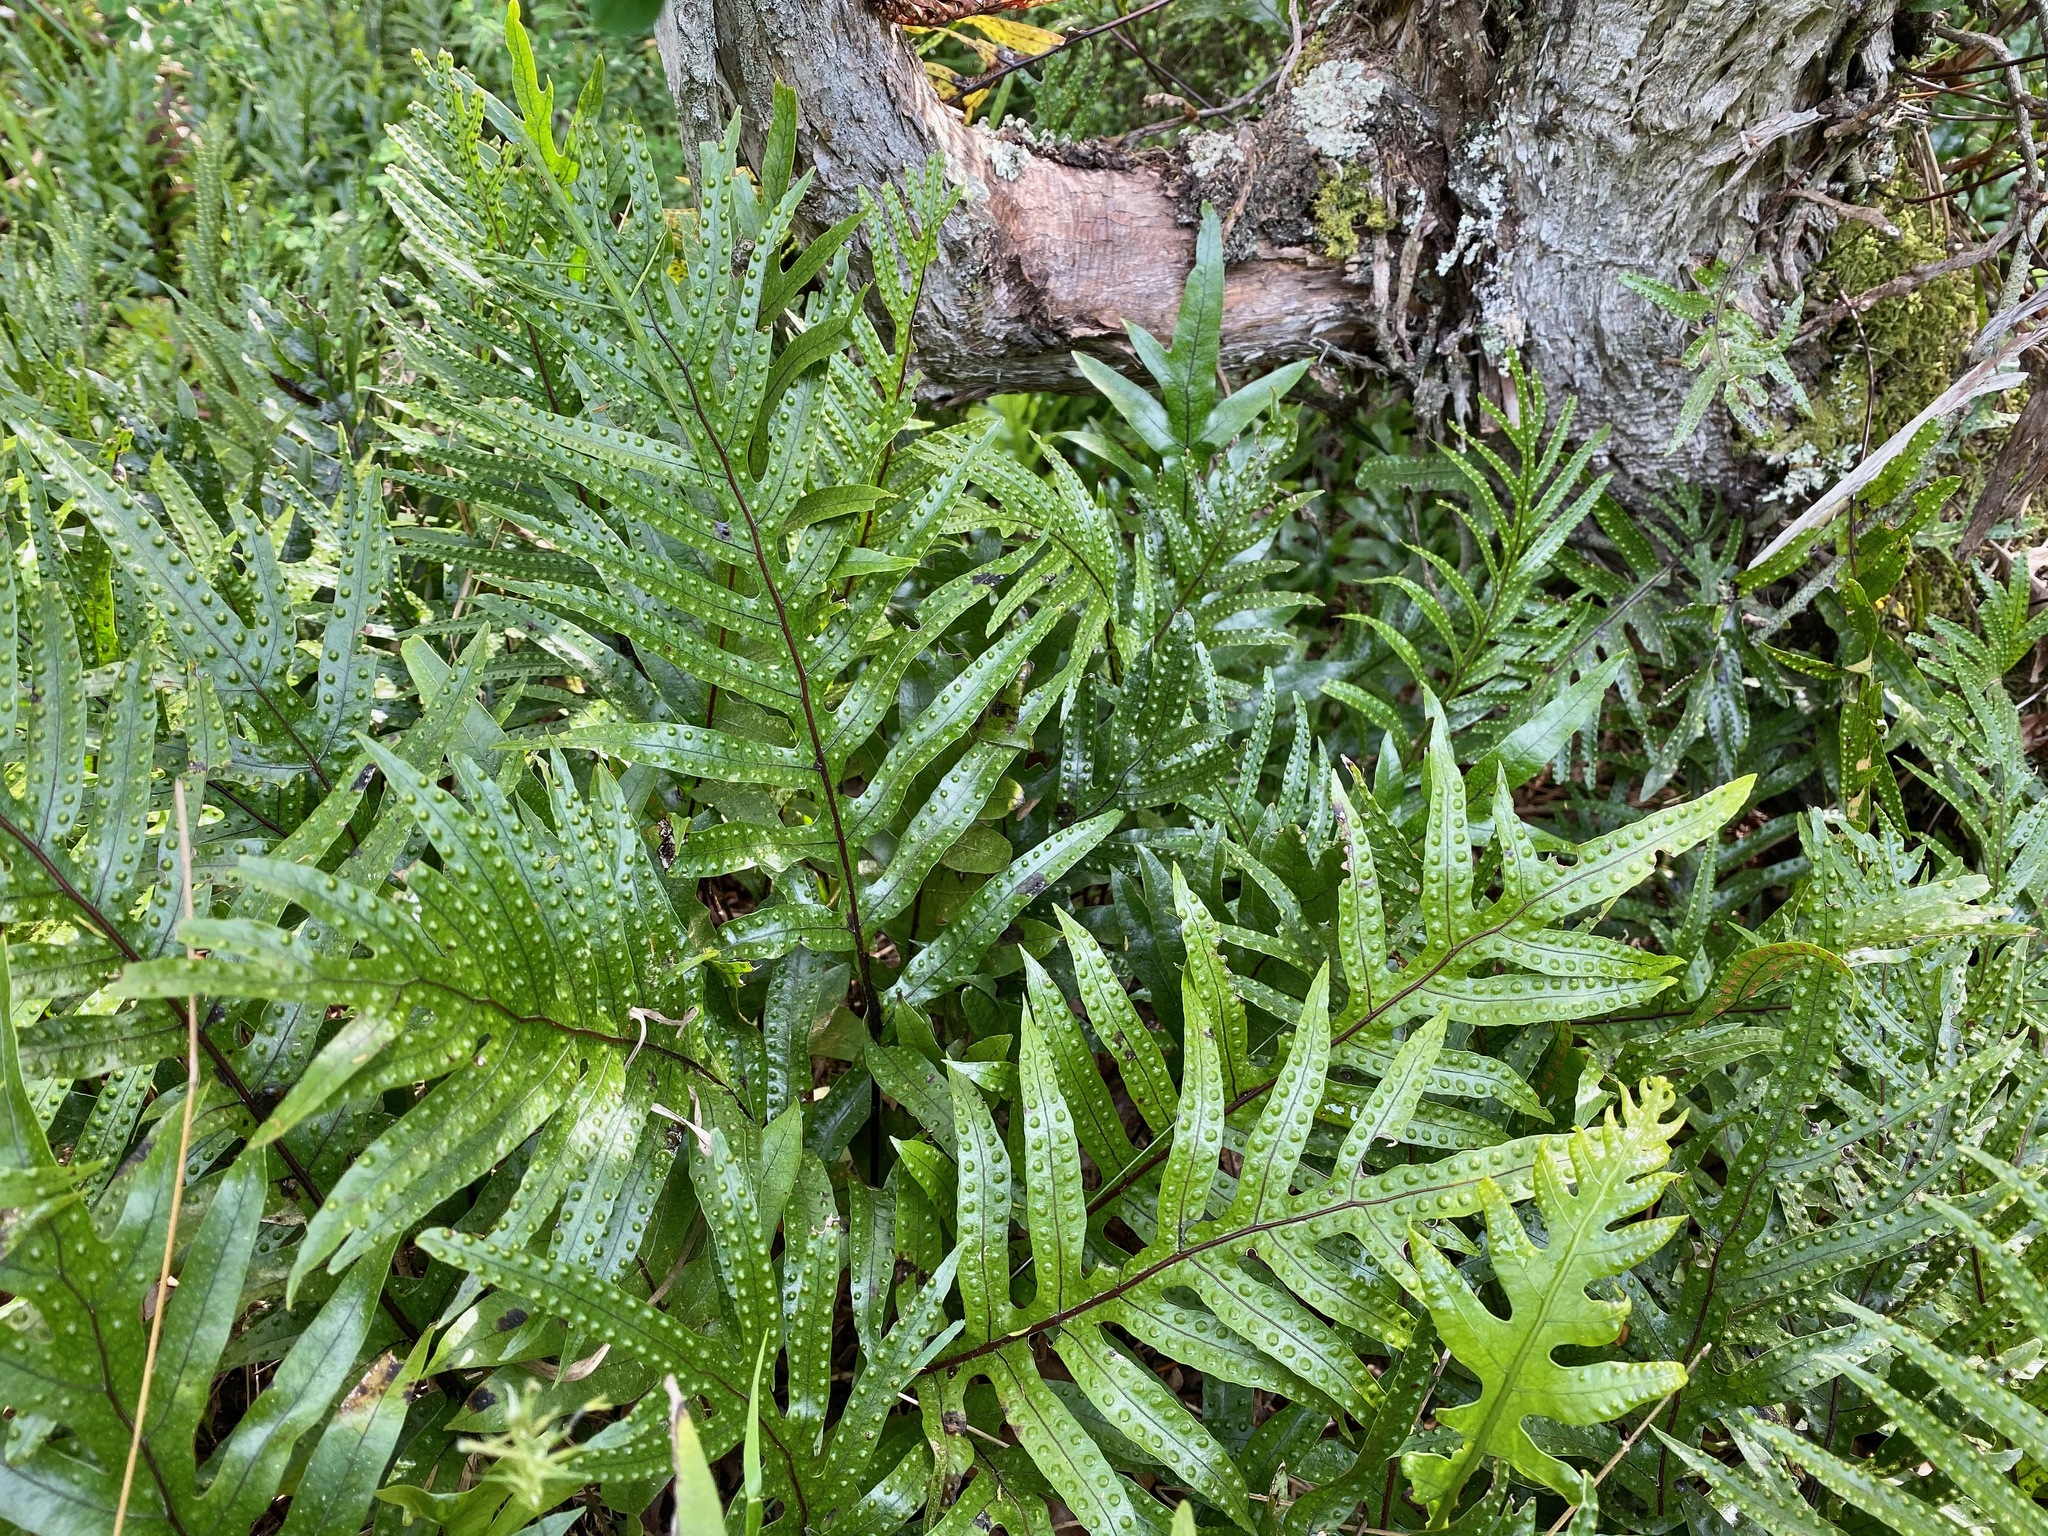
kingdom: Plantae
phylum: Tracheophyta
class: Polypodiopsida
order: Polypodiales
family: Polypodiaceae
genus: Lecanopteris
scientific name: Lecanopteris pustulata
